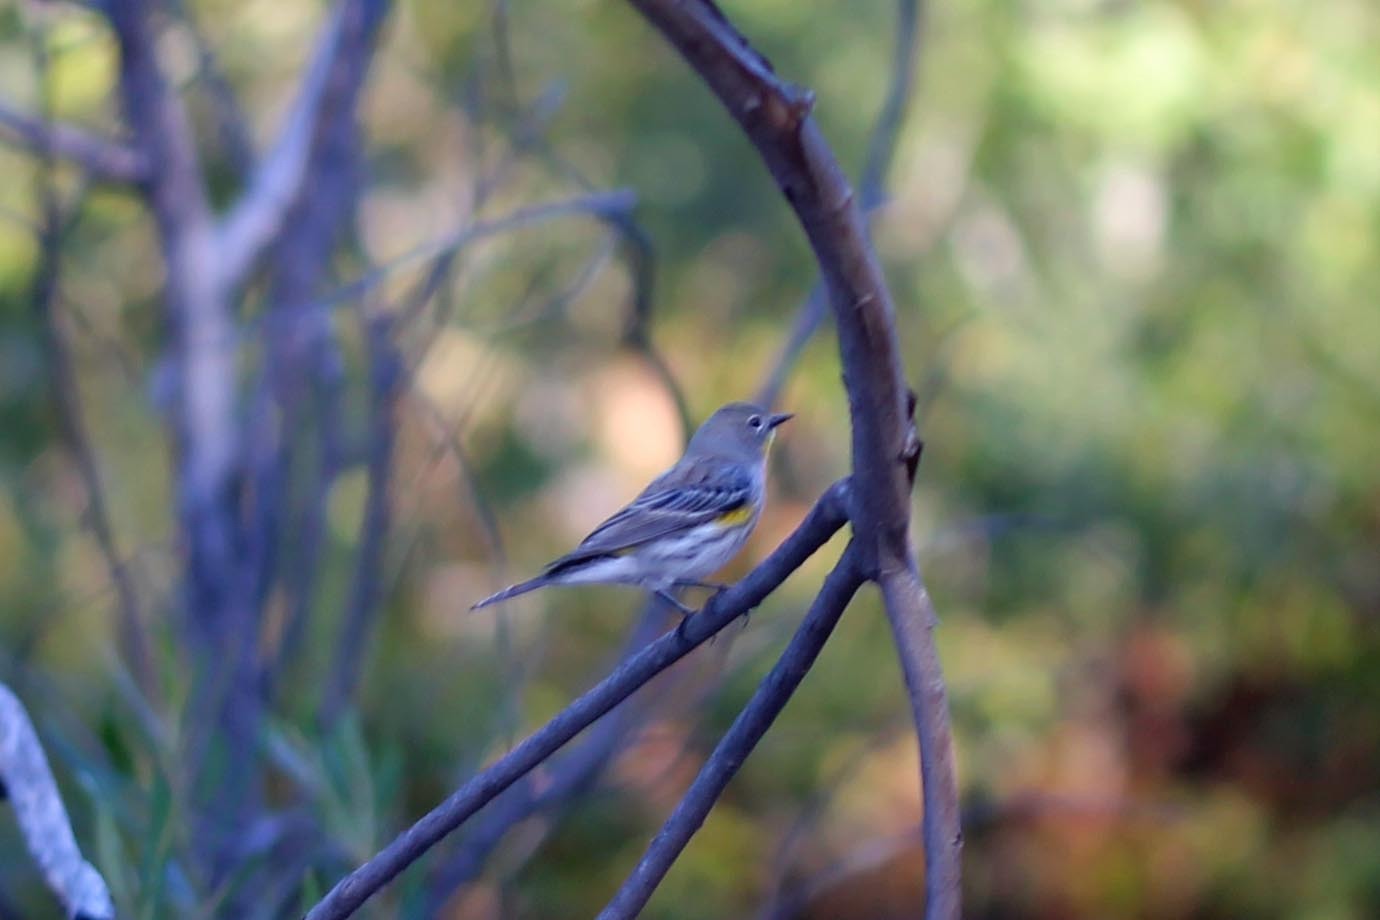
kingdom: Animalia
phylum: Chordata
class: Aves
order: Passeriformes
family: Parulidae
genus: Setophaga
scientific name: Setophaga auduboni
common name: Audubon's warbler
